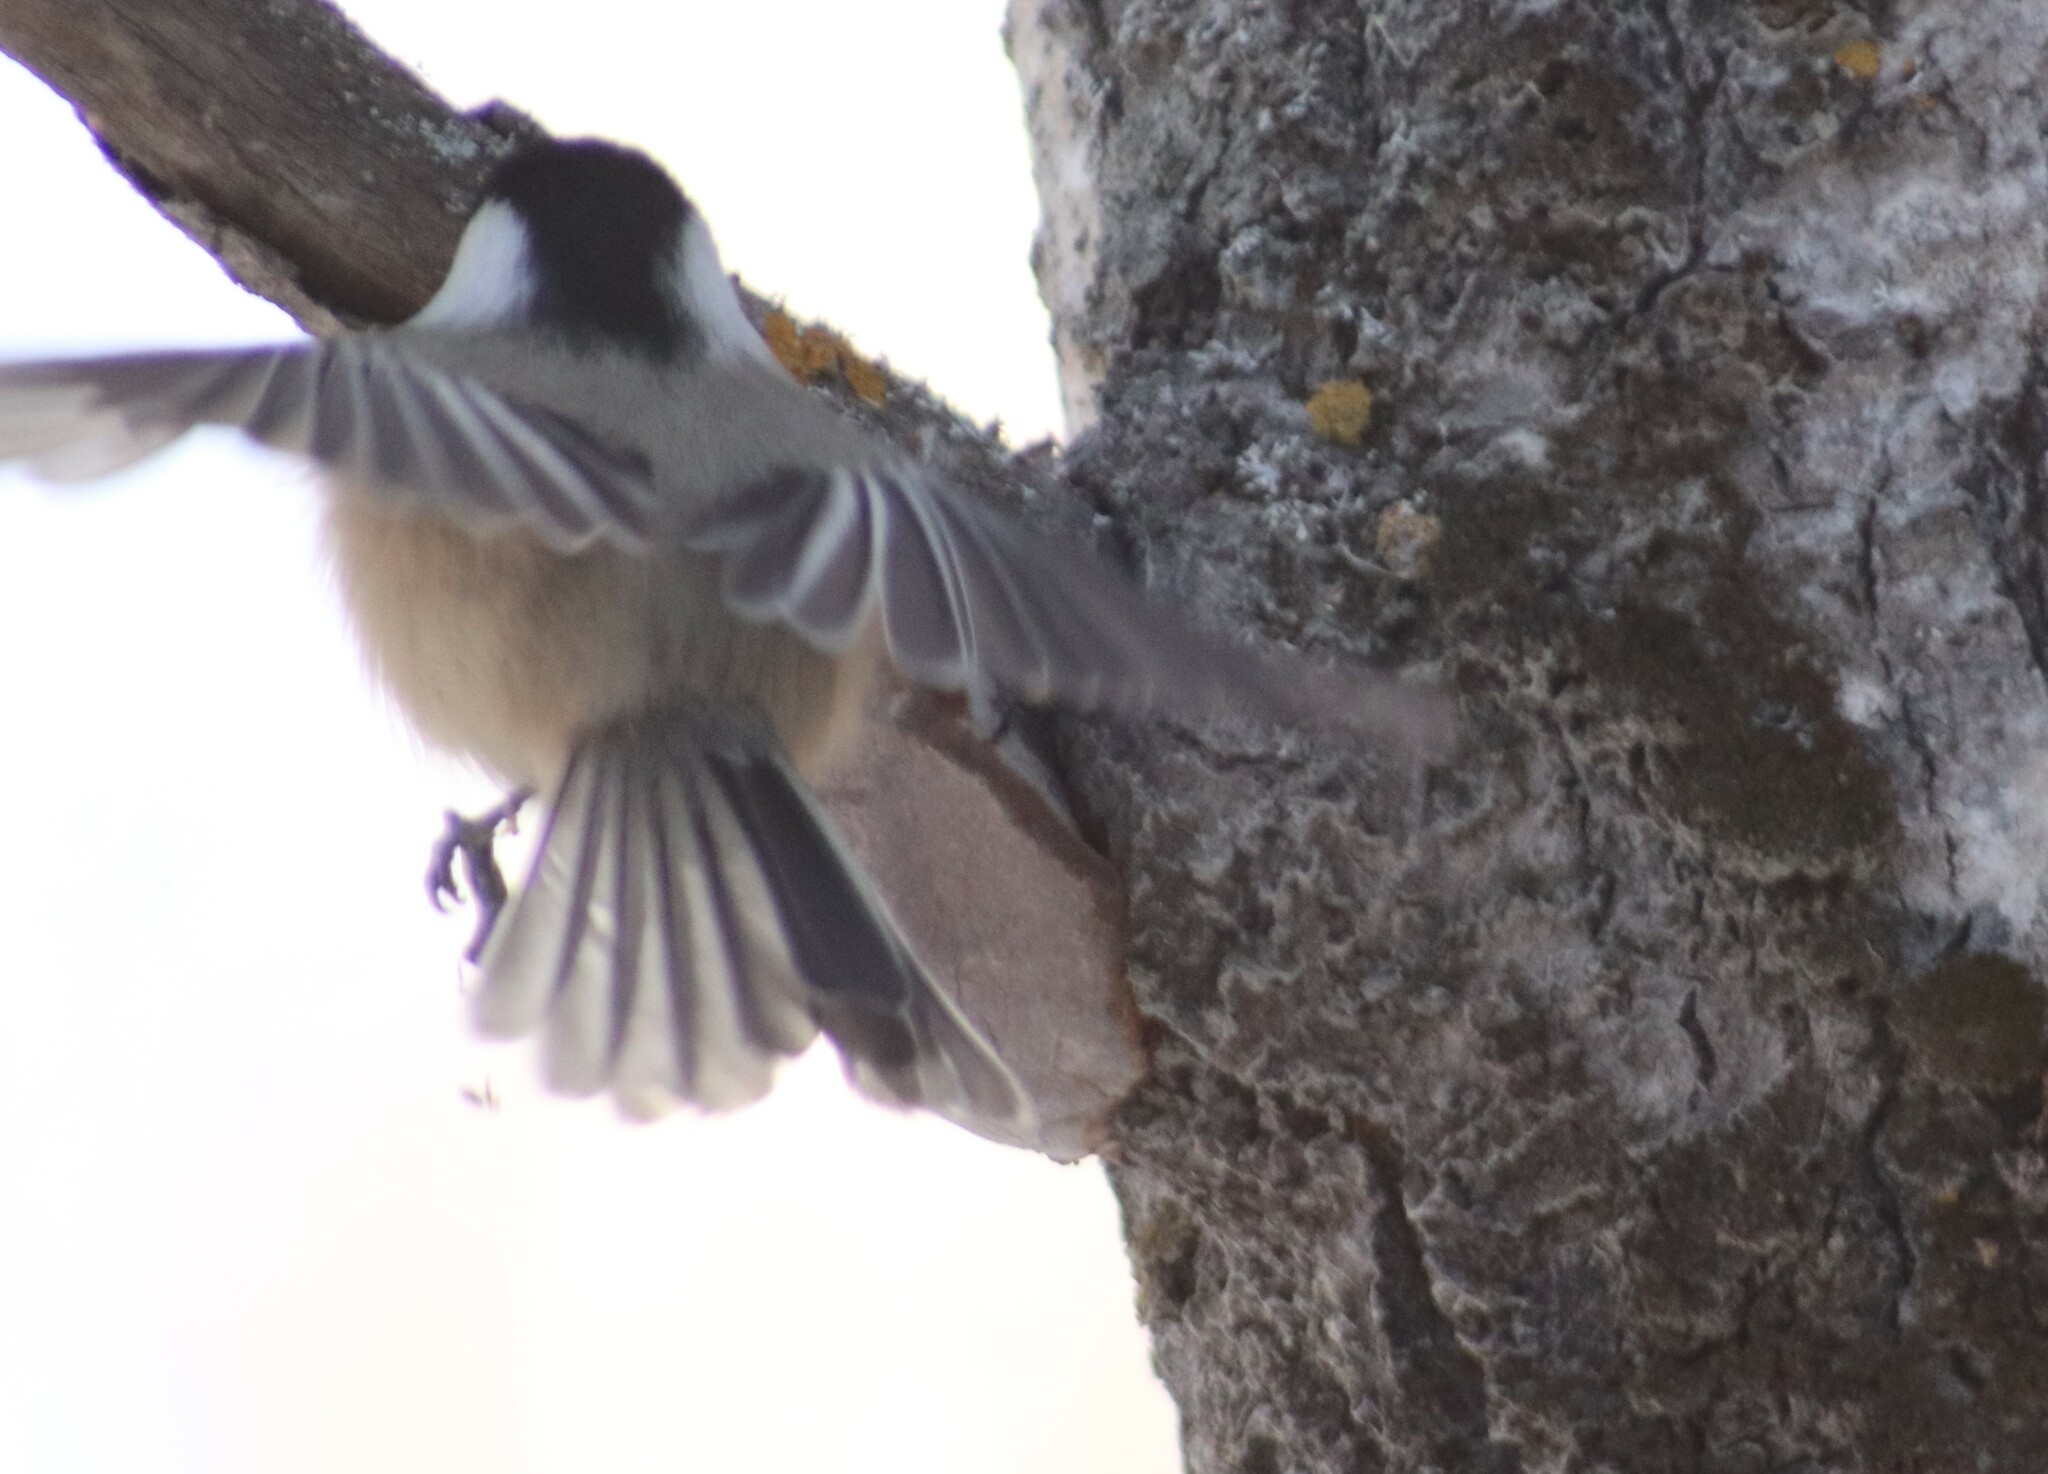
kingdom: Animalia
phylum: Chordata
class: Aves
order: Passeriformes
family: Paridae
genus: Poecile
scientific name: Poecile atricapillus
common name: Black-capped chickadee
